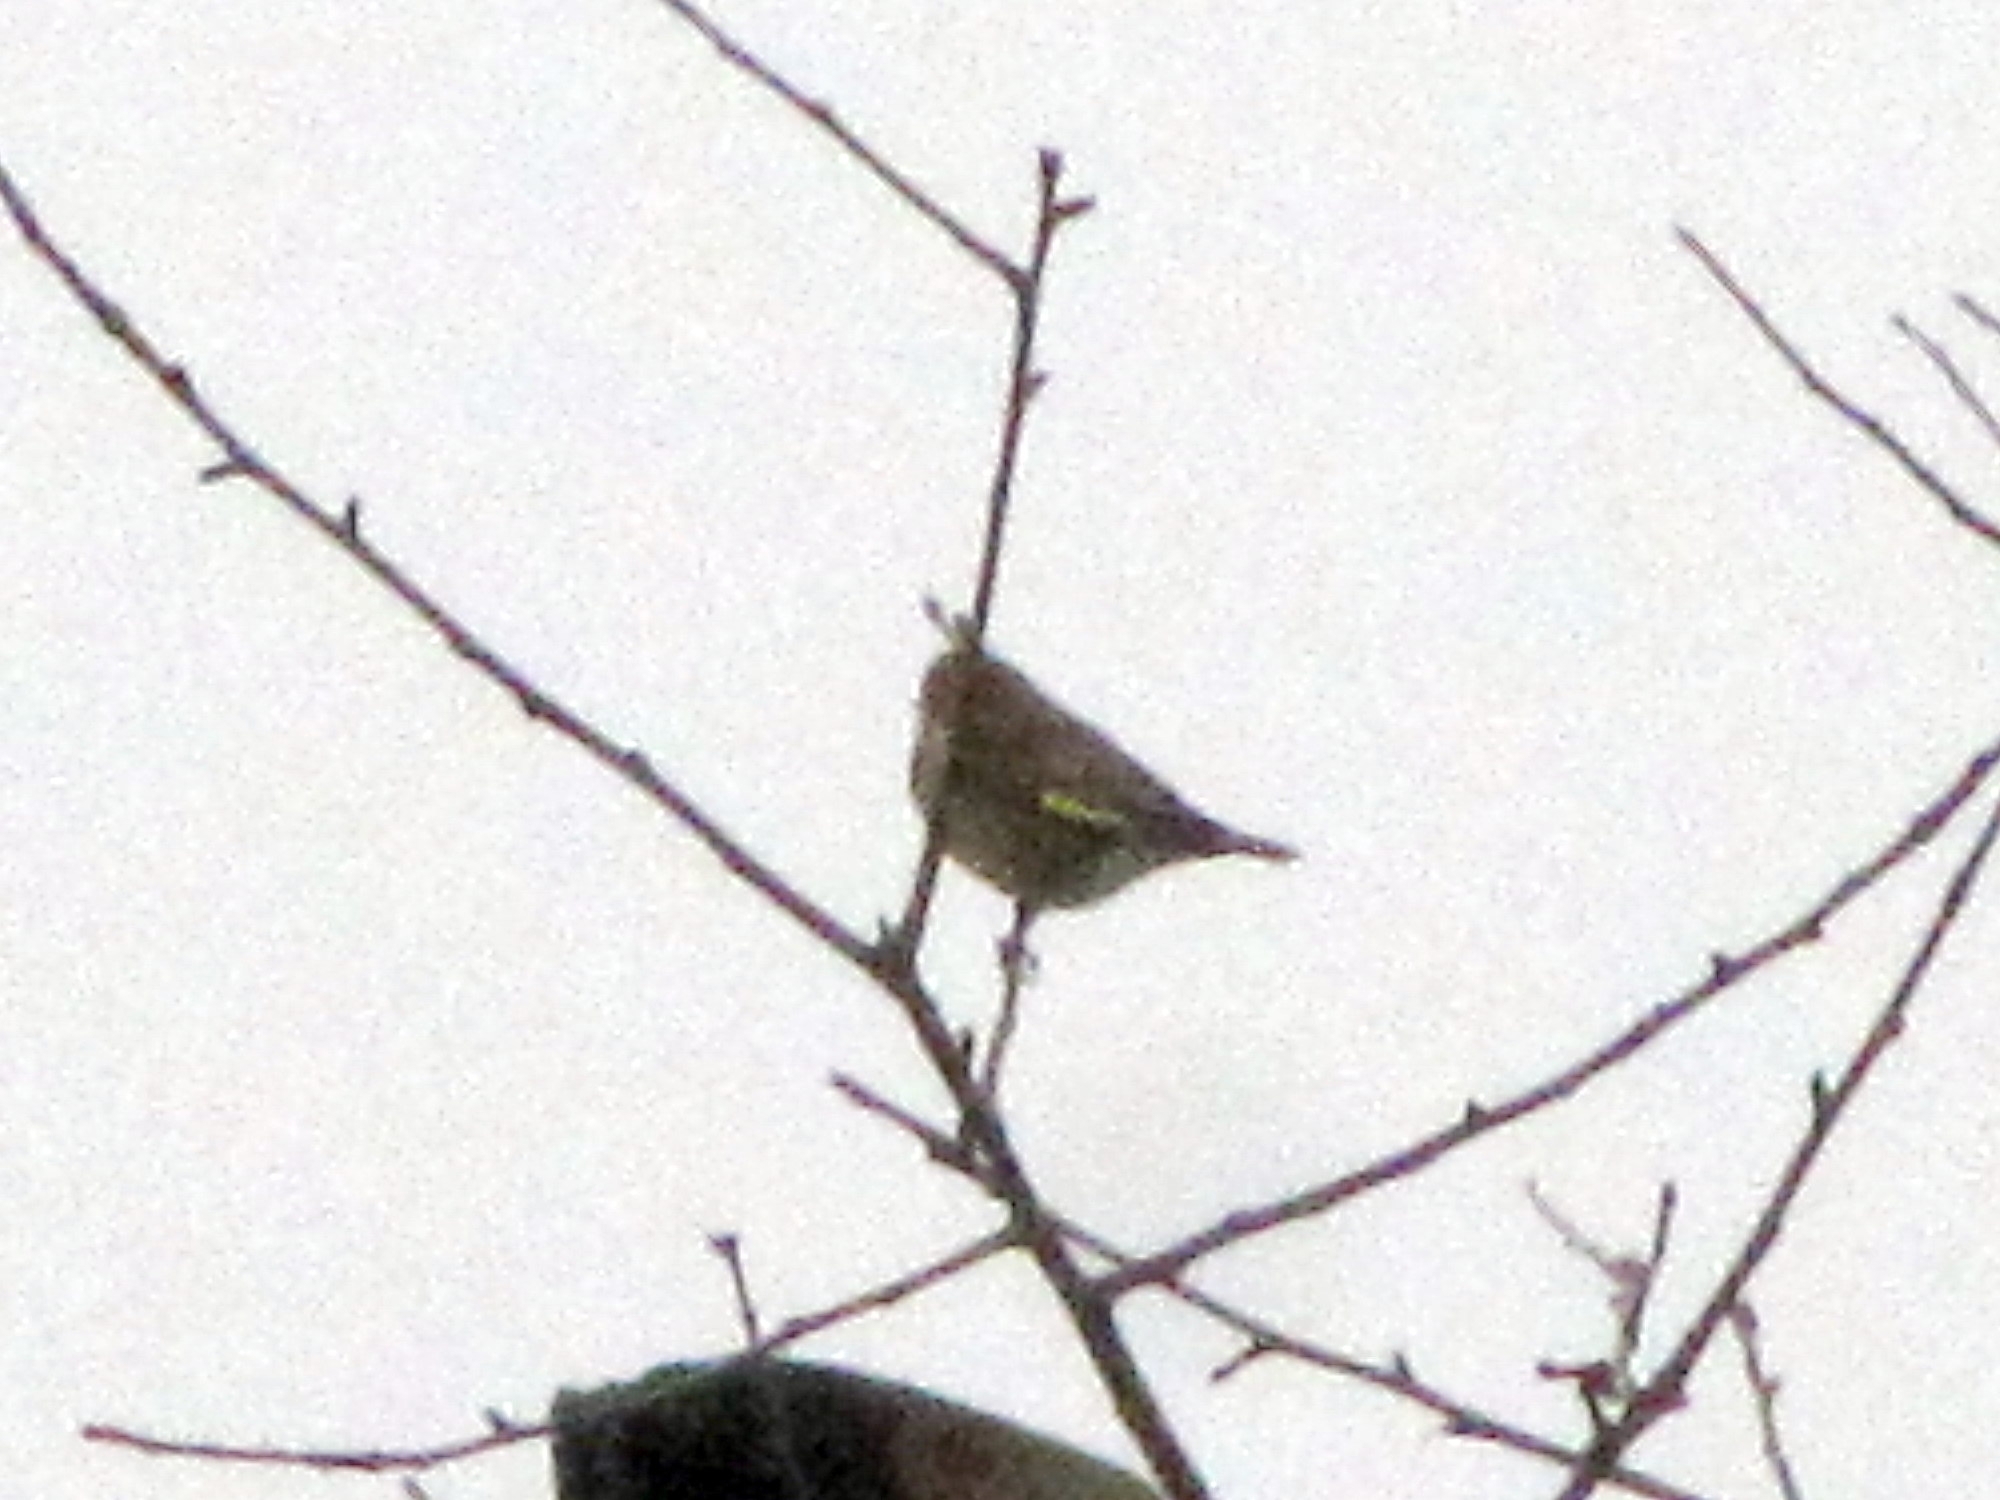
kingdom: Plantae
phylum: Tracheophyta
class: Liliopsida
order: Poales
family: Poaceae
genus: Chloris
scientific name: Chloris chloris
